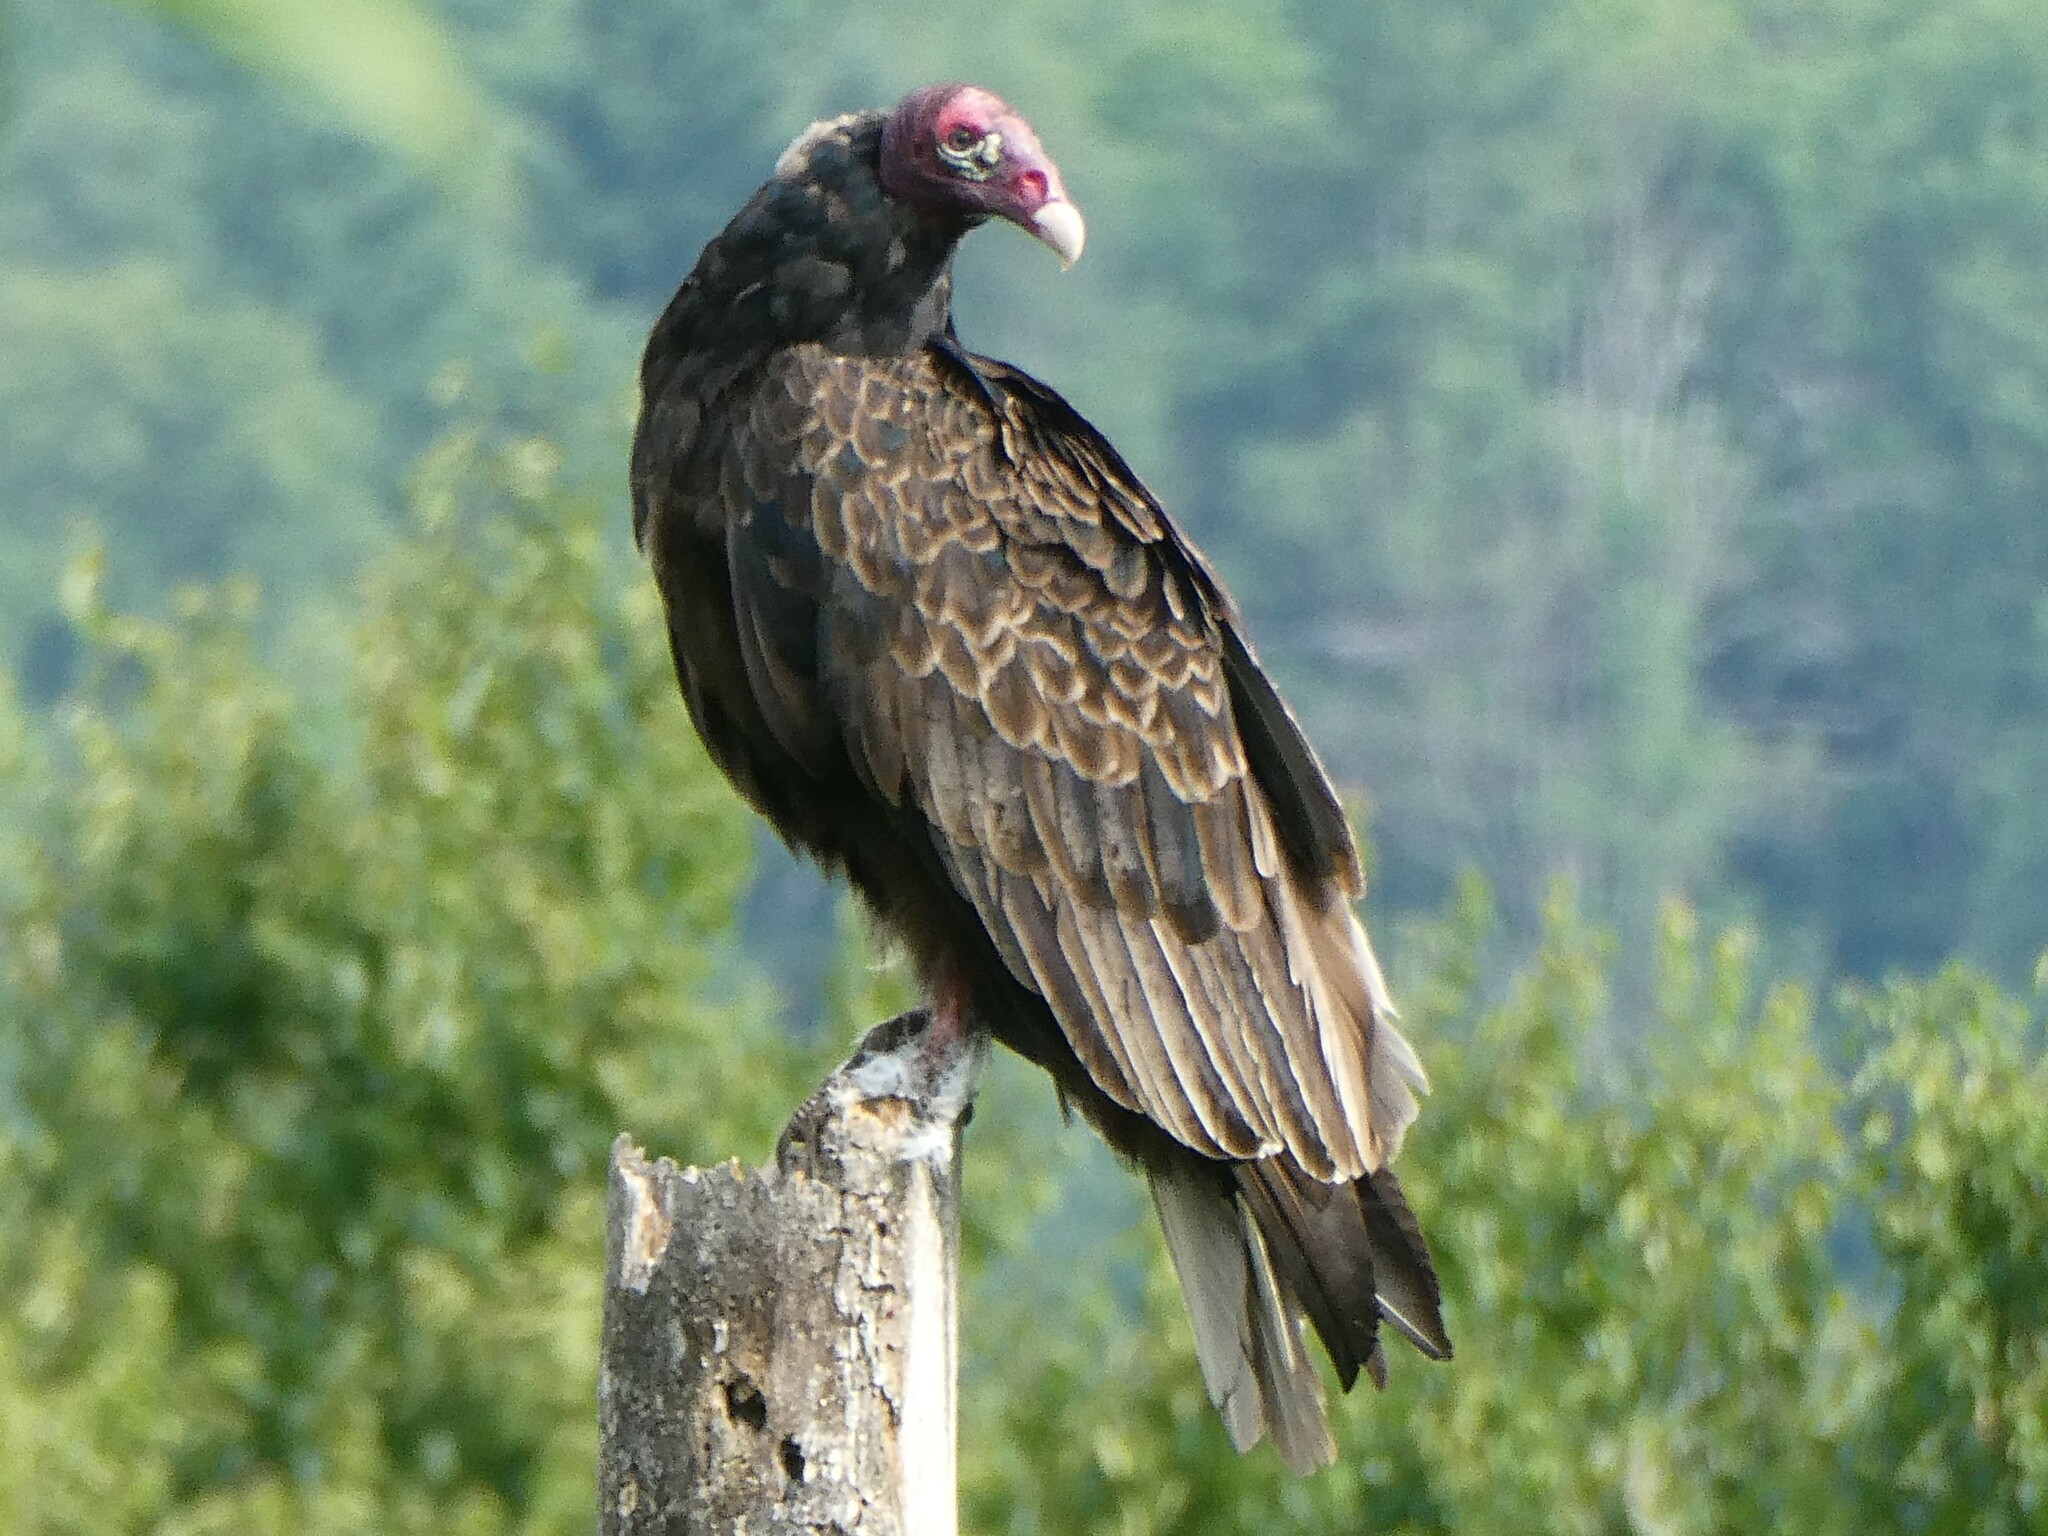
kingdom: Animalia
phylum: Chordata
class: Aves
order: Accipitriformes
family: Cathartidae
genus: Cathartes
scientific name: Cathartes aura
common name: Turkey vulture
